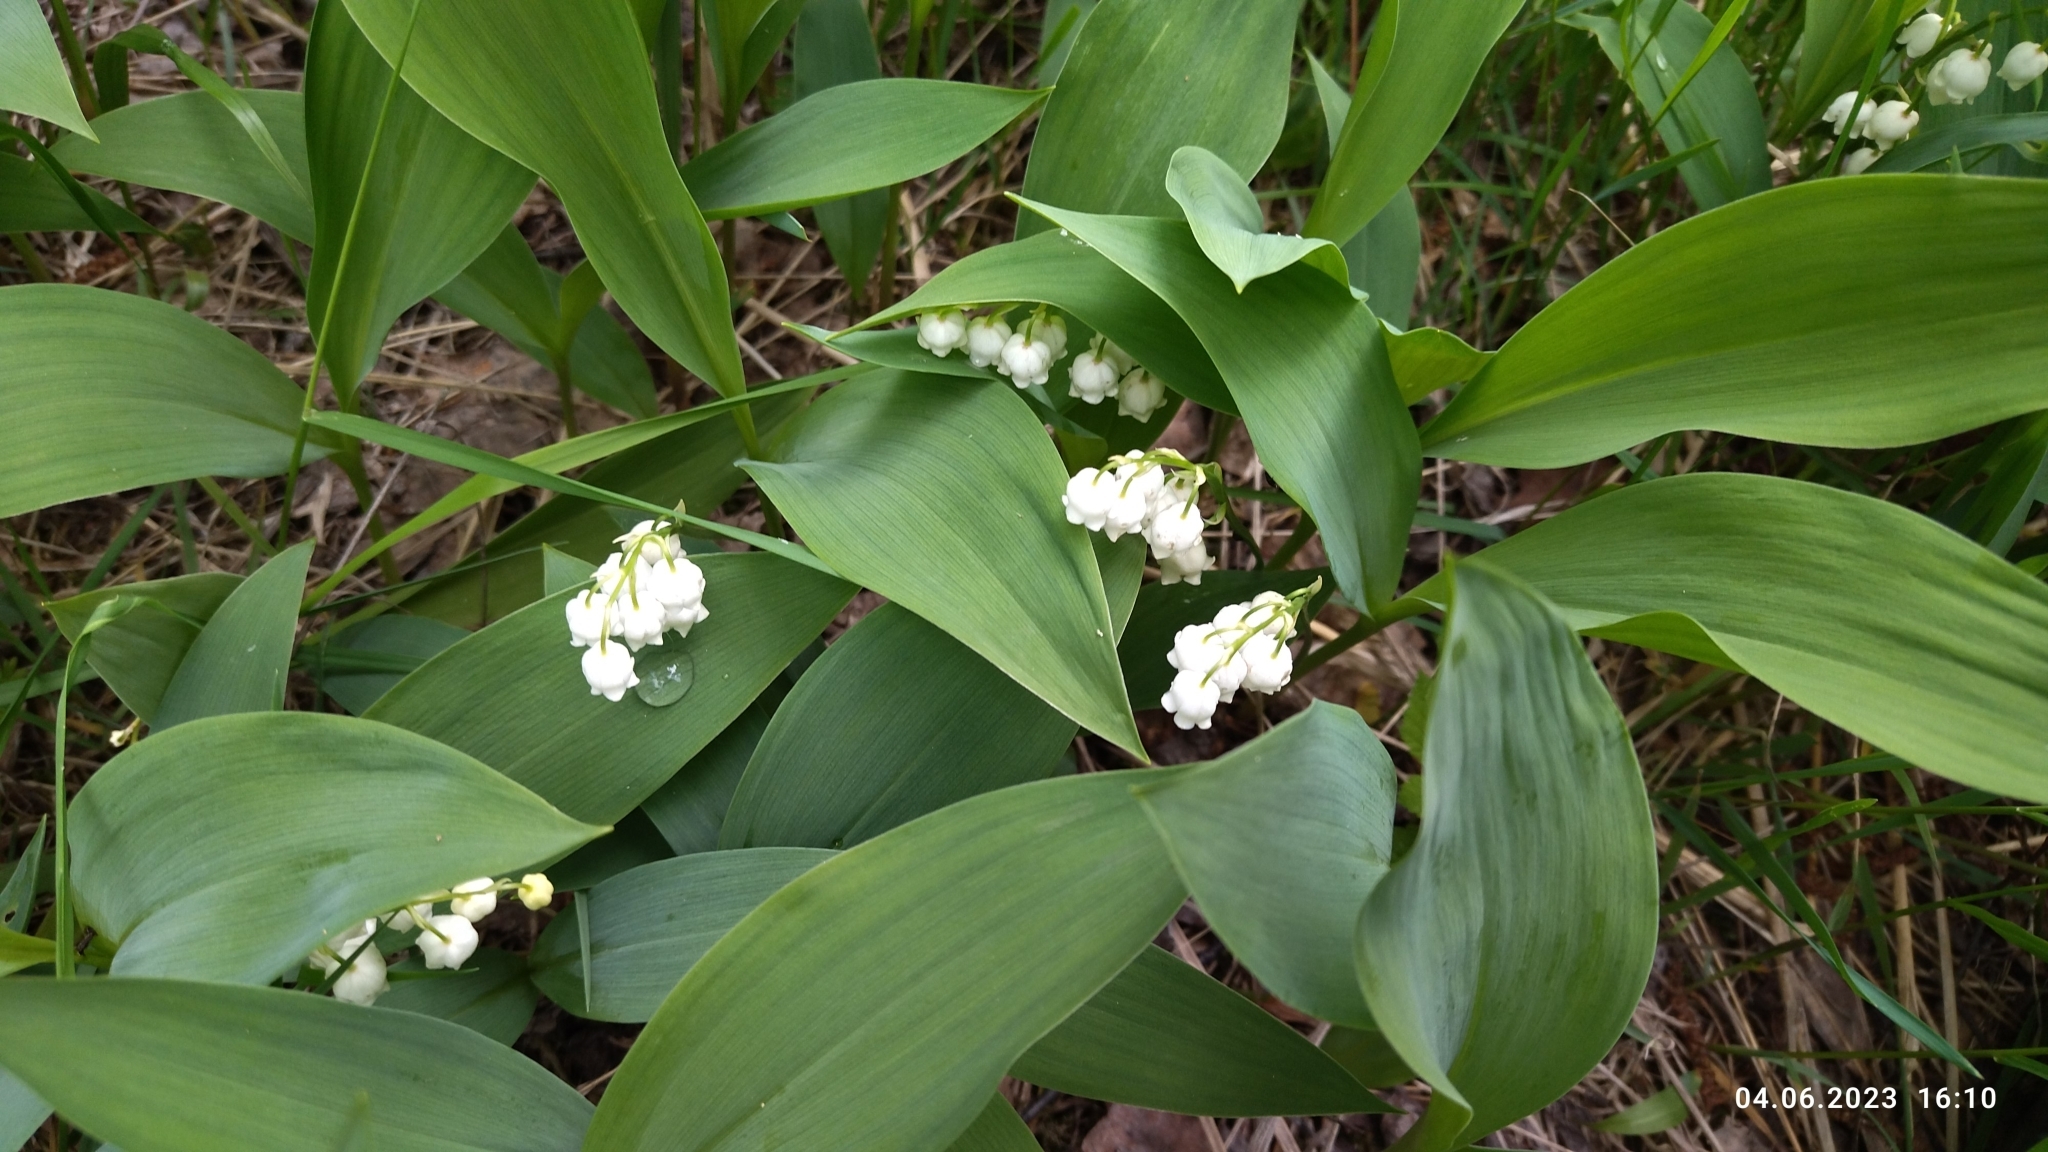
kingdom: Plantae
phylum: Tracheophyta
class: Liliopsida
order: Asparagales
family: Asparagaceae
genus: Convallaria
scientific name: Convallaria majalis
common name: Lily-of-the-valley
